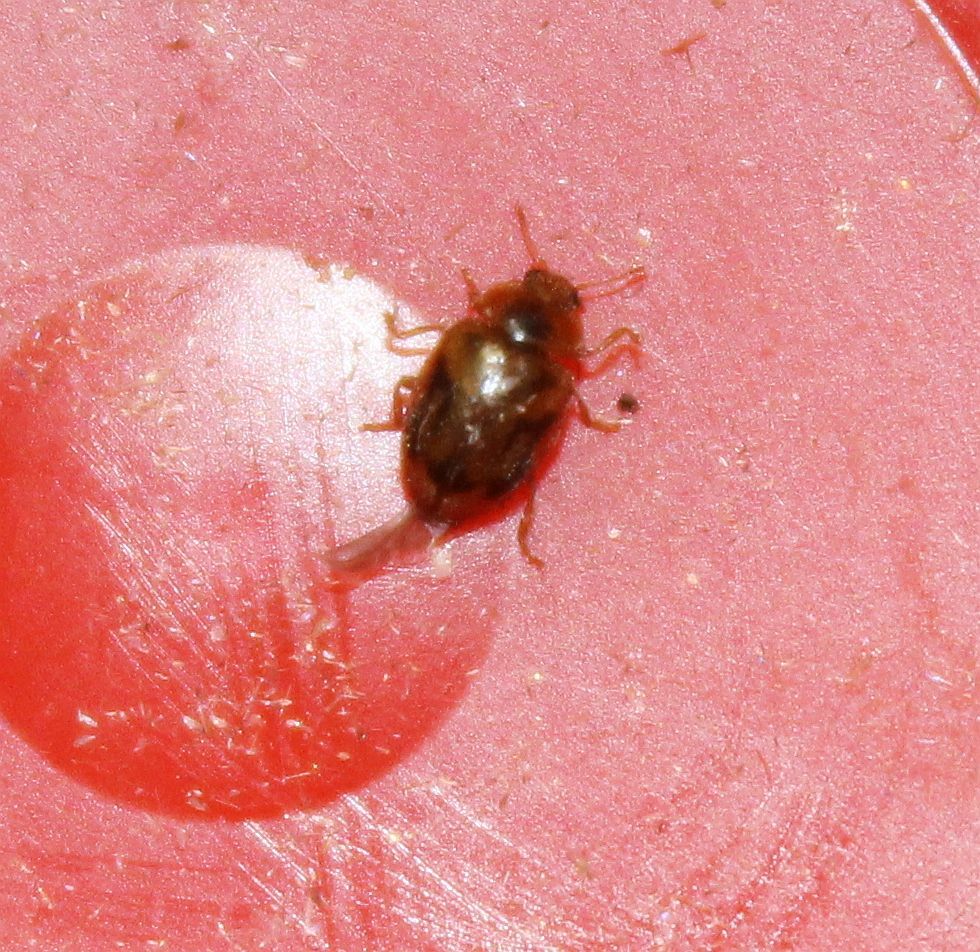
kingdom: Animalia
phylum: Arthropoda
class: Insecta
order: Coleoptera
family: Coccinellidae
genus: Rhyzobius
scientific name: Rhyzobius chrysomeloides
